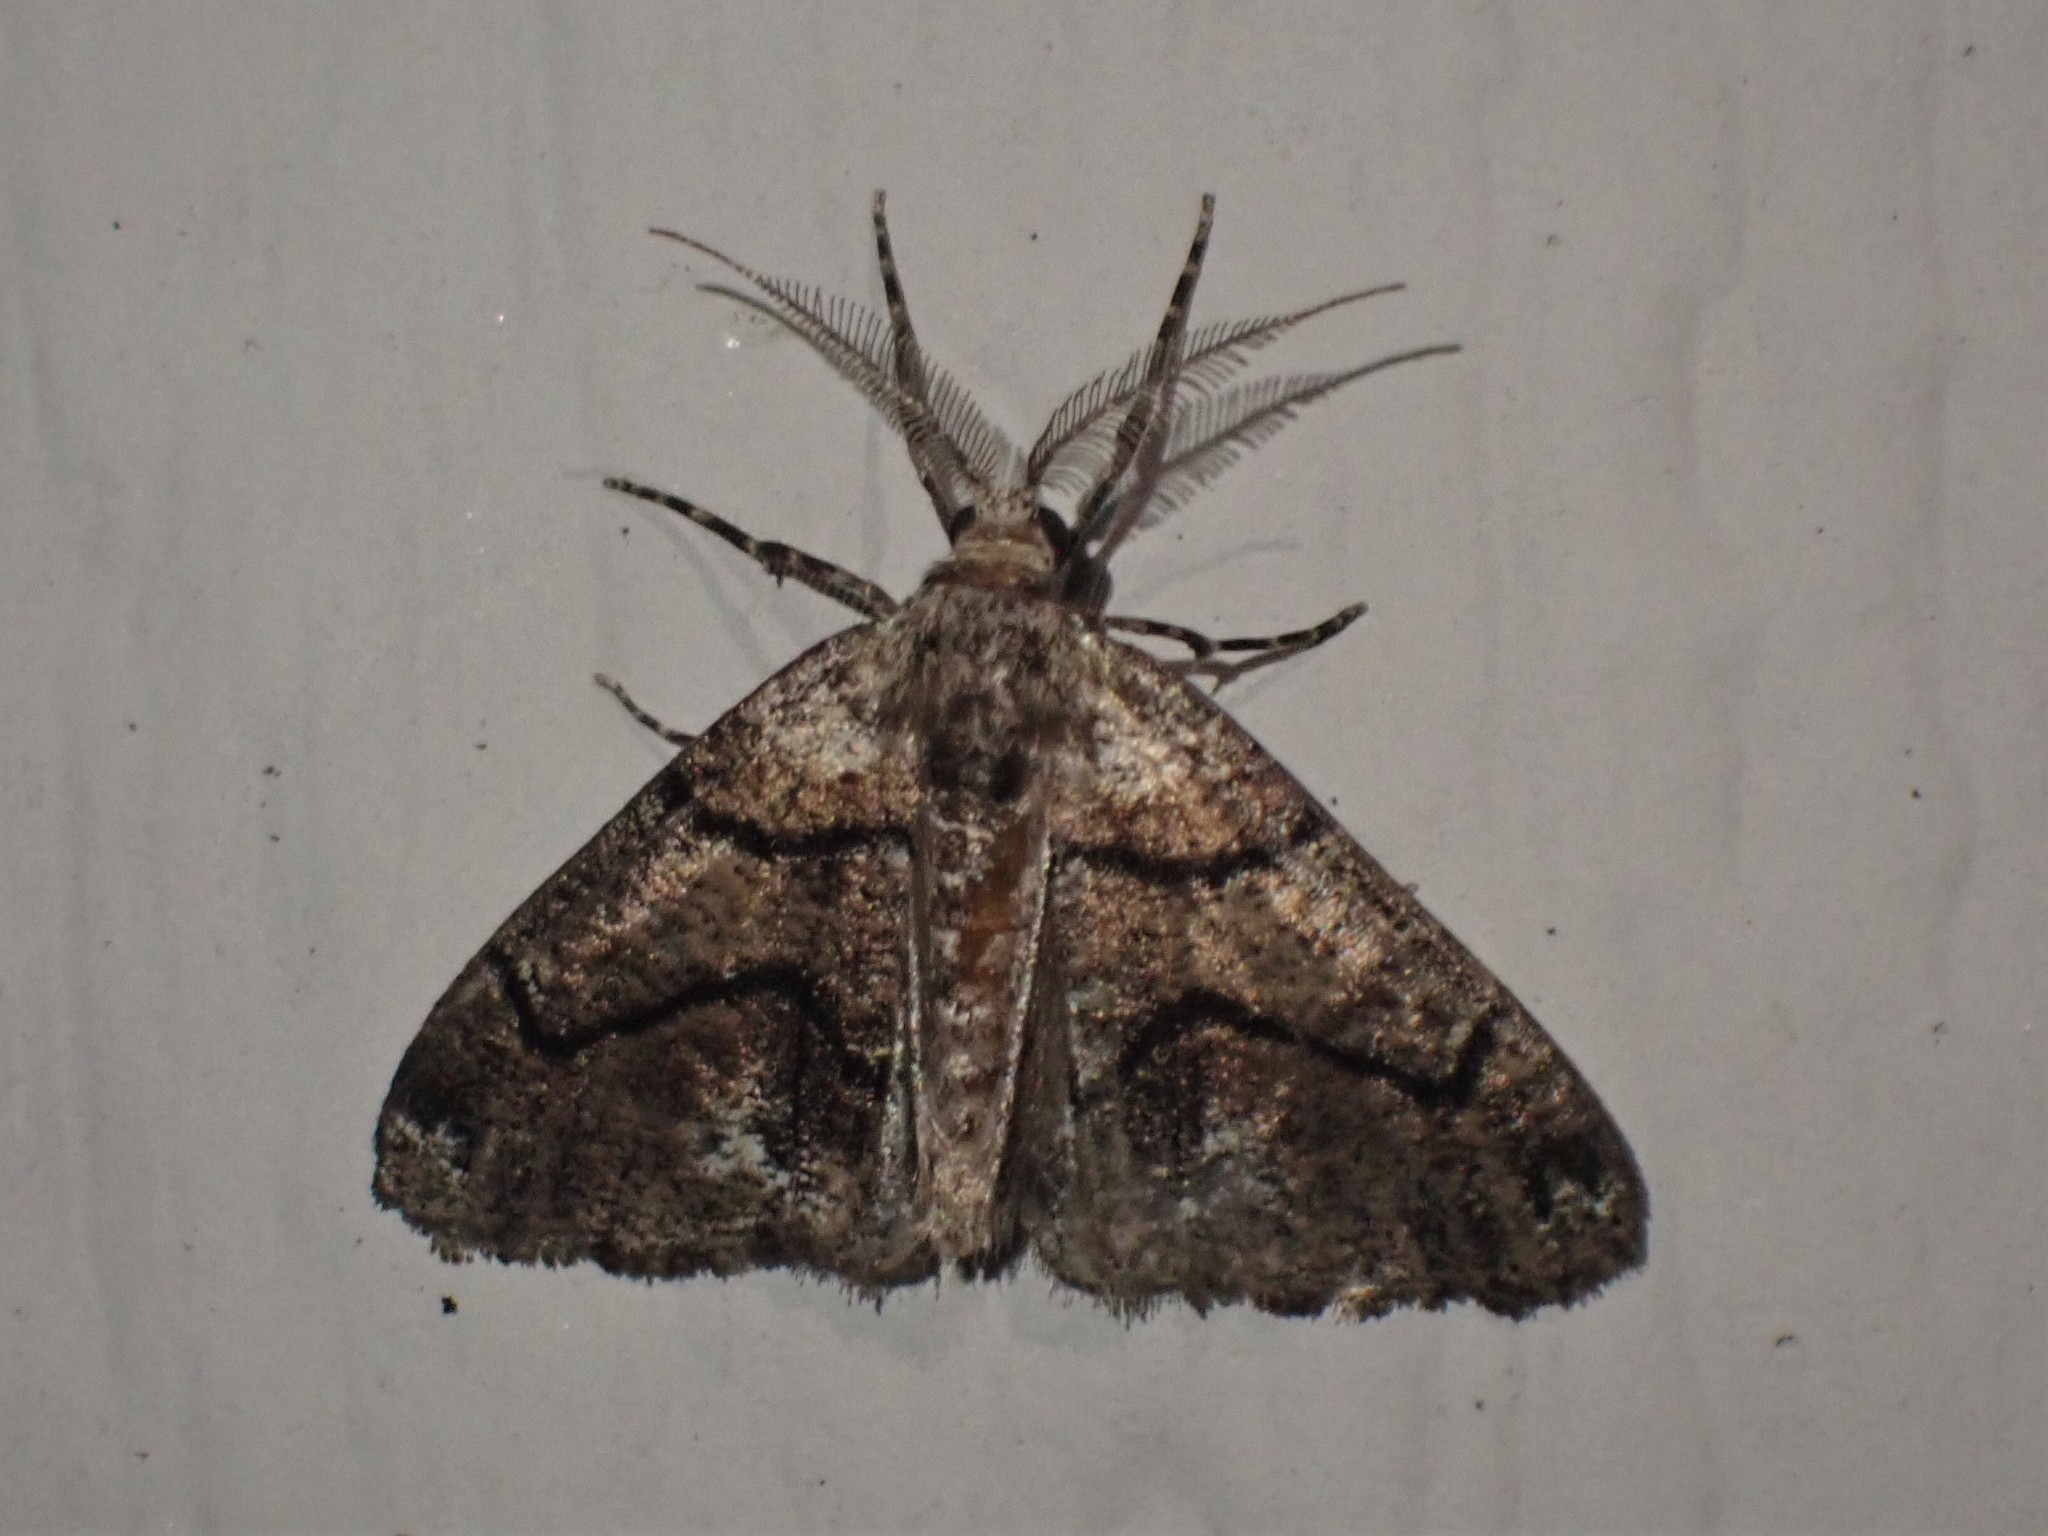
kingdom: Animalia
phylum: Arthropoda
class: Insecta
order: Lepidoptera
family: Geometridae
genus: Gabriola
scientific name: Gabriola dyari
